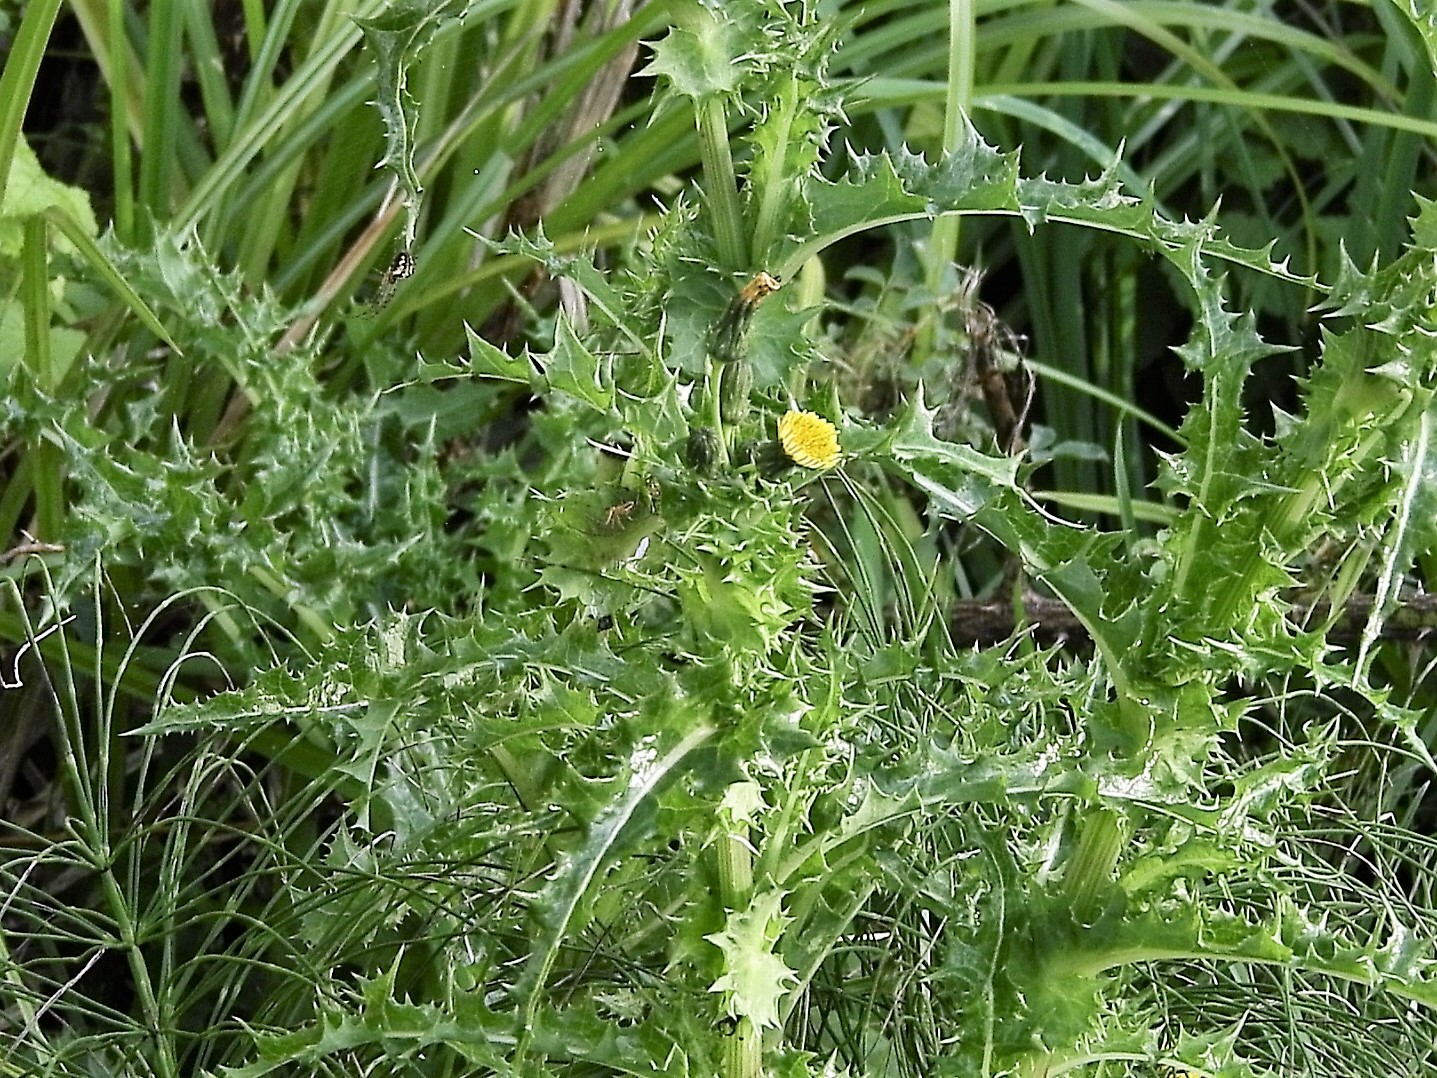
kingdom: Plantae
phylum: Tracheophyta
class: Magnoliopsida
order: Asterales
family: Asteraceae
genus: Sonchus
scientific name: Sonchus asper
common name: Prickly sow-thistle
